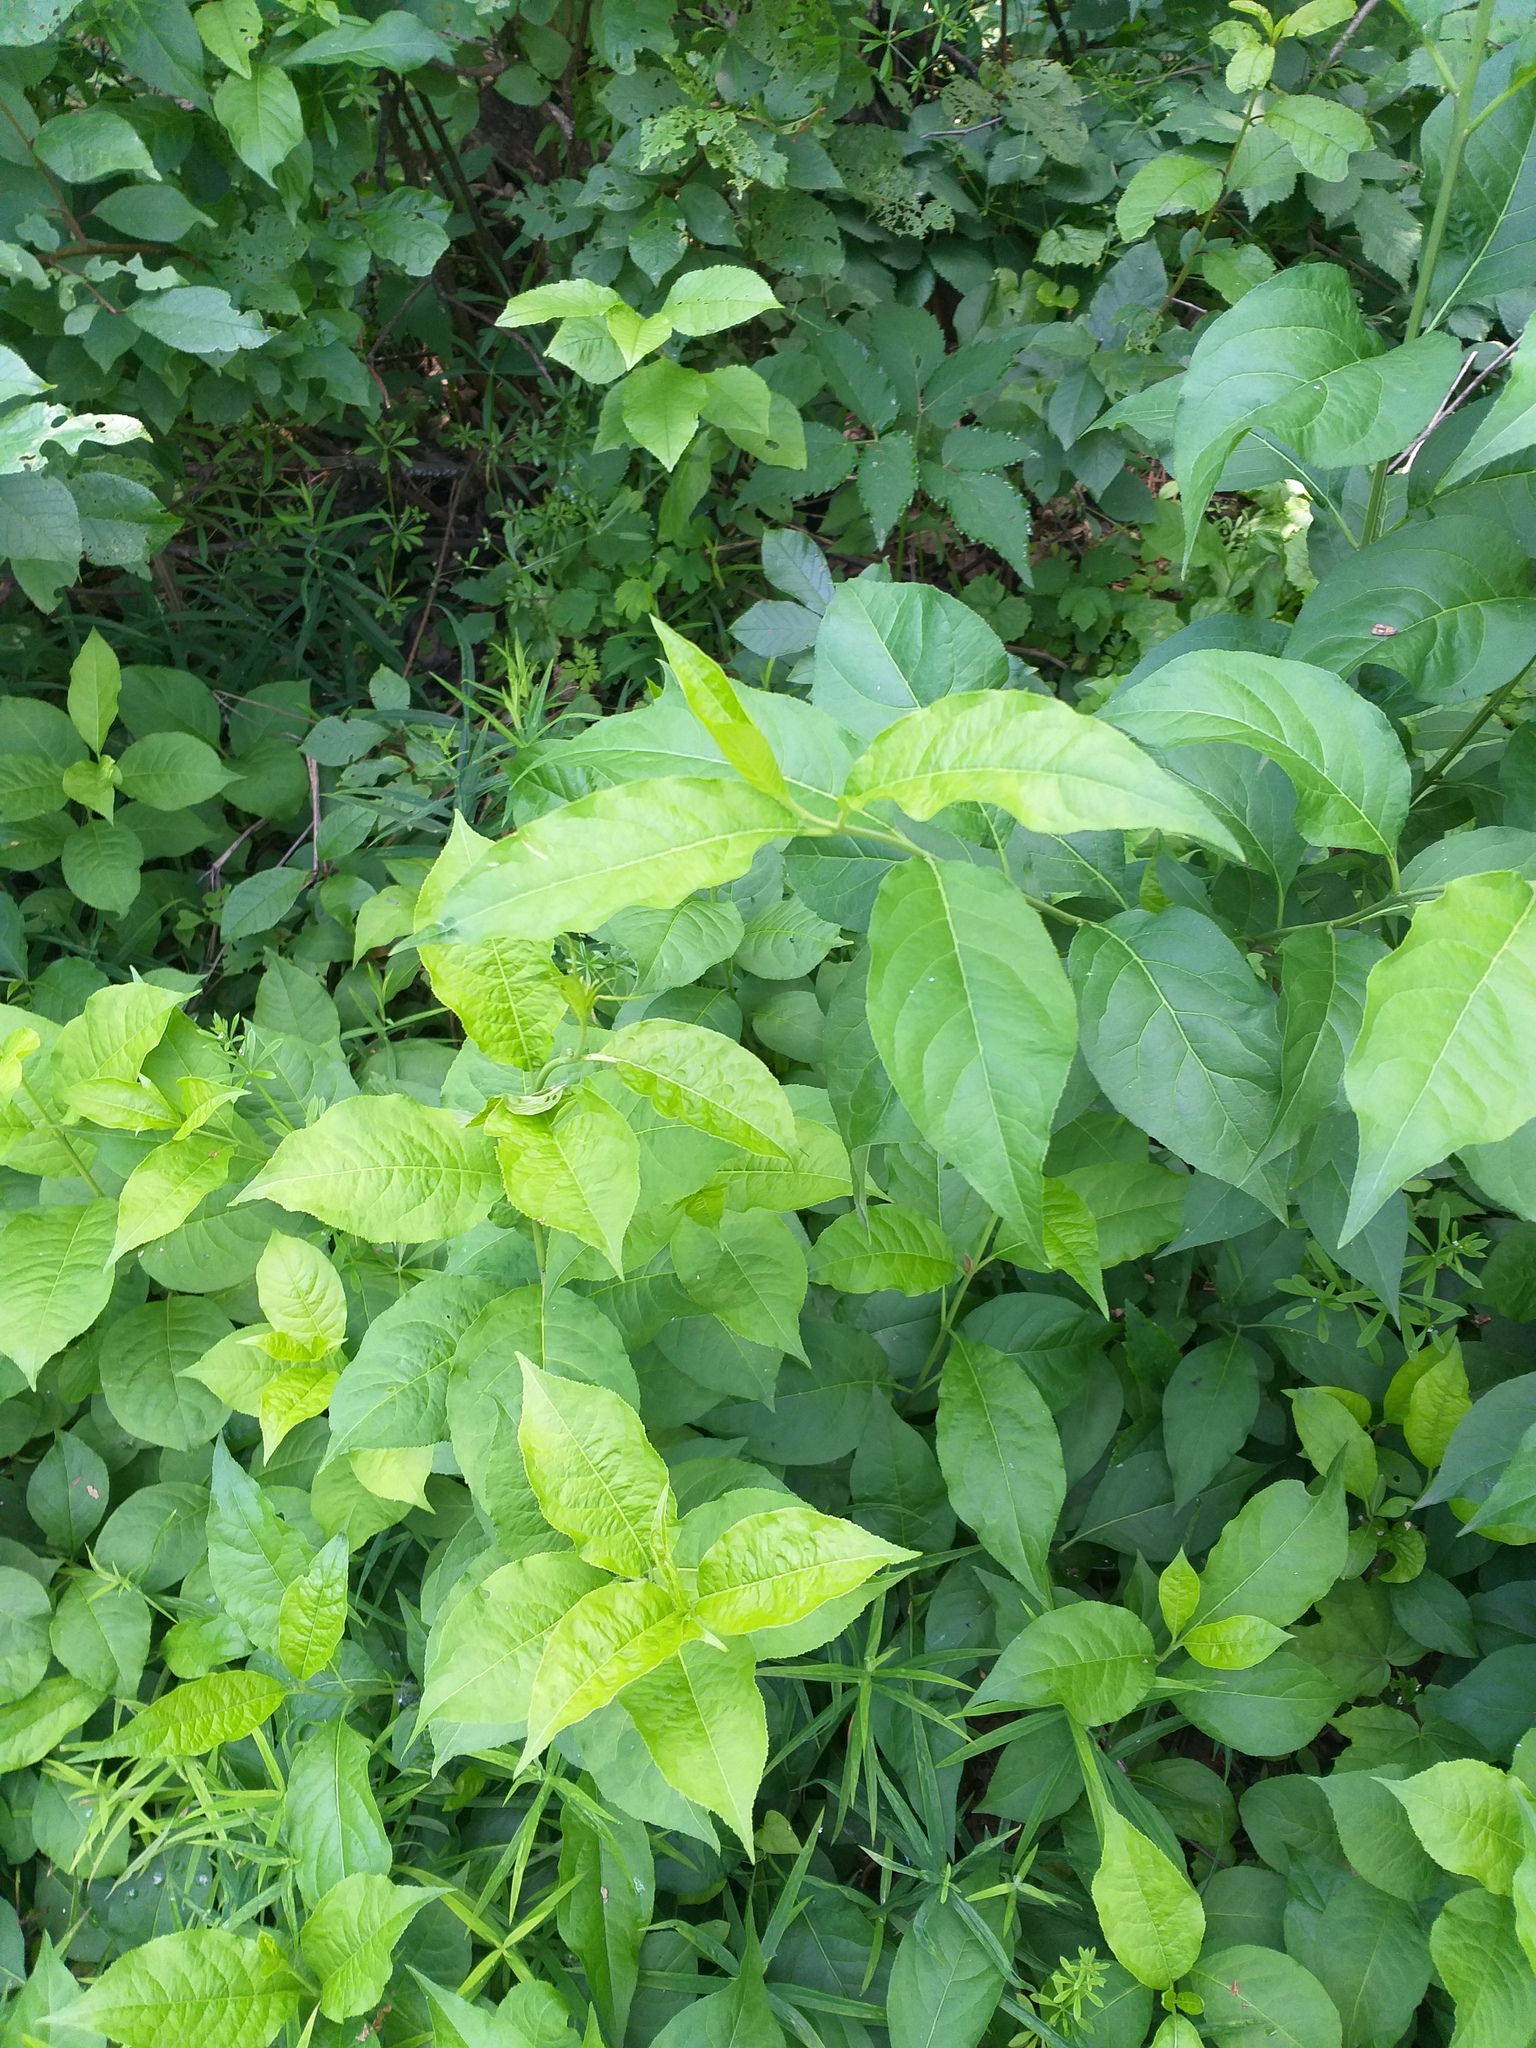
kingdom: Plantae
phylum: Tracheophyta
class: Magnoliopsida
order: Celastrales
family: Celastraceae
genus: Euonymus
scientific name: Euonymus europaeus
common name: Spindle
